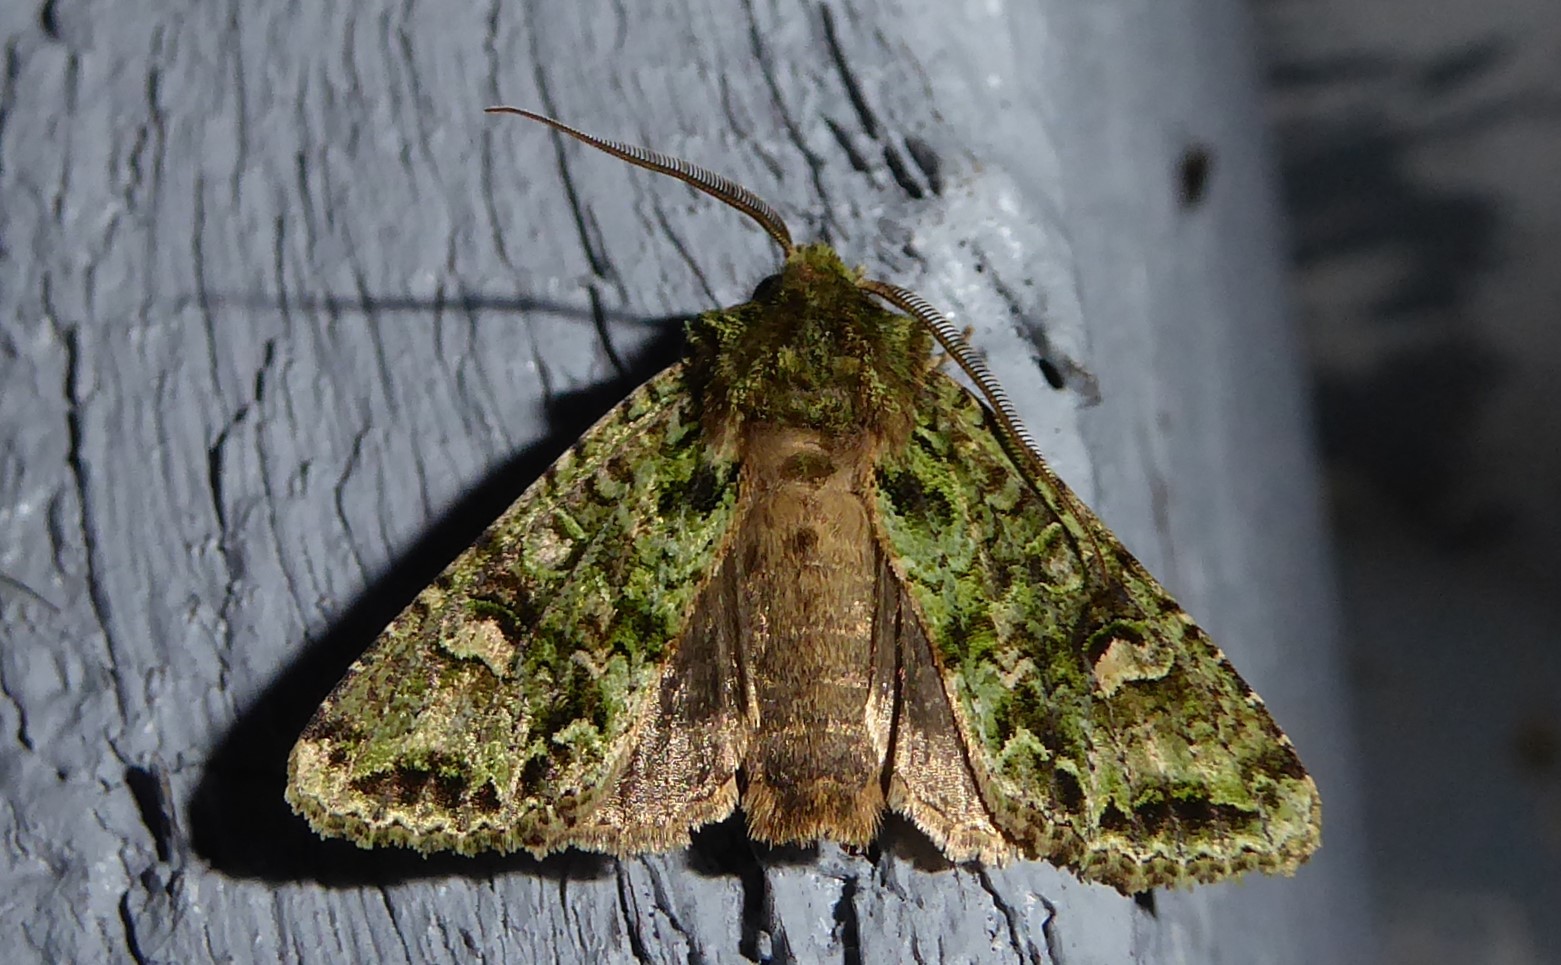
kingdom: Animalia
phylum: Arthropoda
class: Insecta
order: Lepidoptera
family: Noctuidae
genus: Ichneutica
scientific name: Ichneutica
